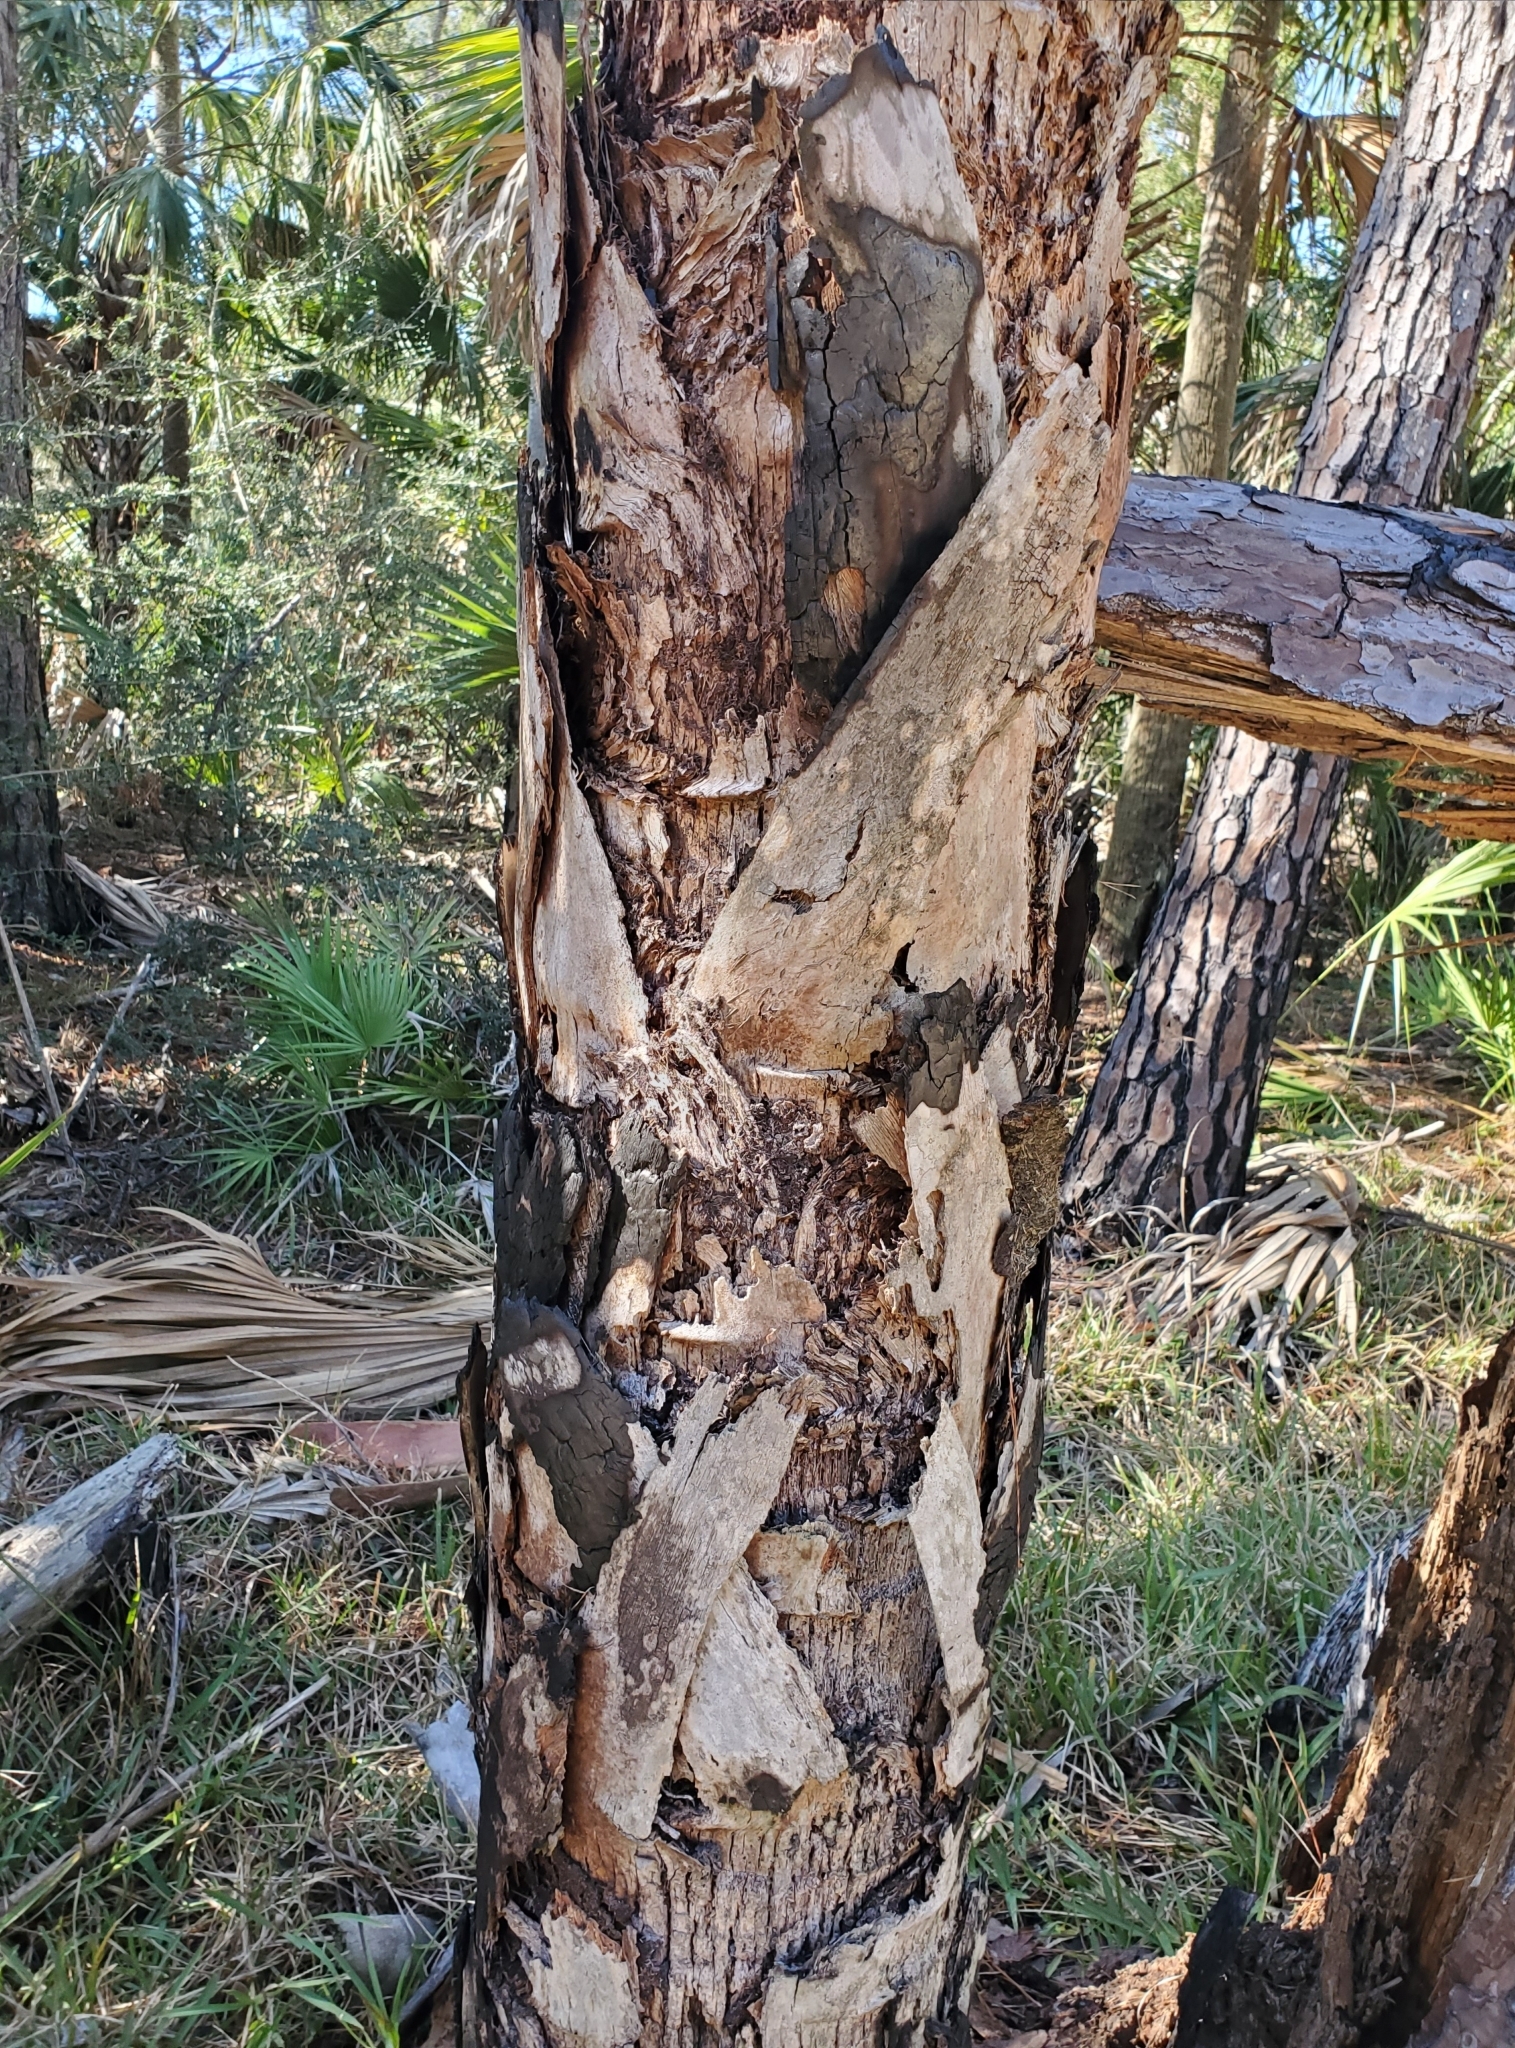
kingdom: Plantae
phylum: Tracheophyta
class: Liliopsida
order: Arecales
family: Arecaceae
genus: Sabal
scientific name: Sabal palmetto
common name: Blue palmetto
